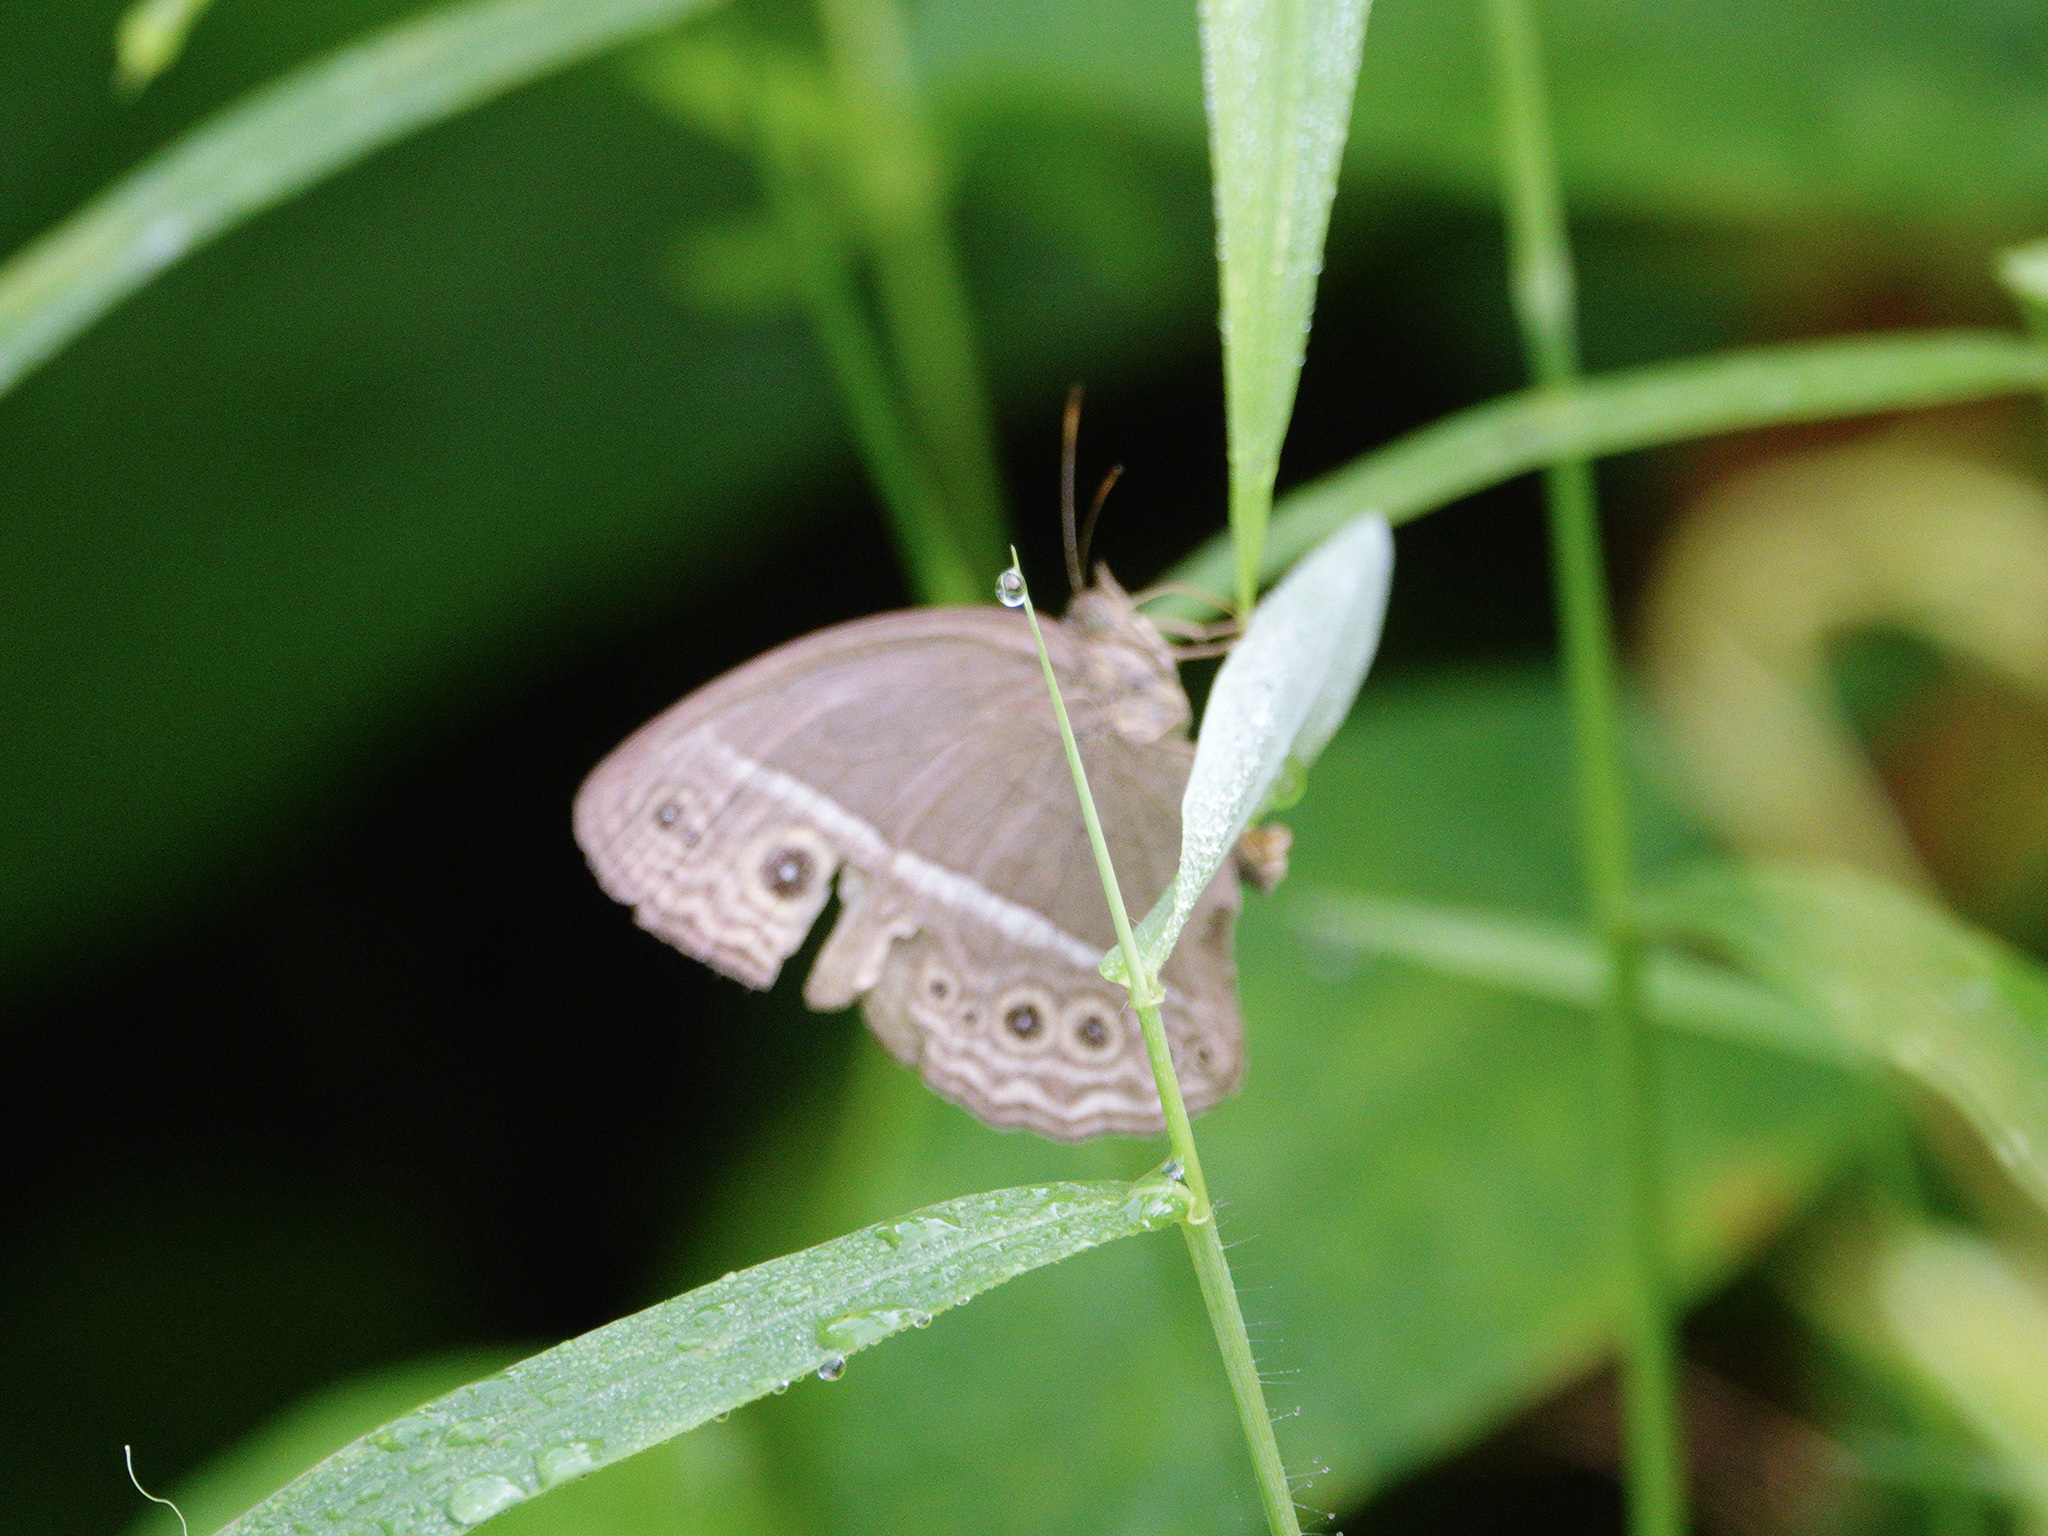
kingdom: Animalia
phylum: Arthropoda
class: Insecta
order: Lepidoptera
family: Nymphalidae
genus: Mycalesis
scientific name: Mycalesis visala
